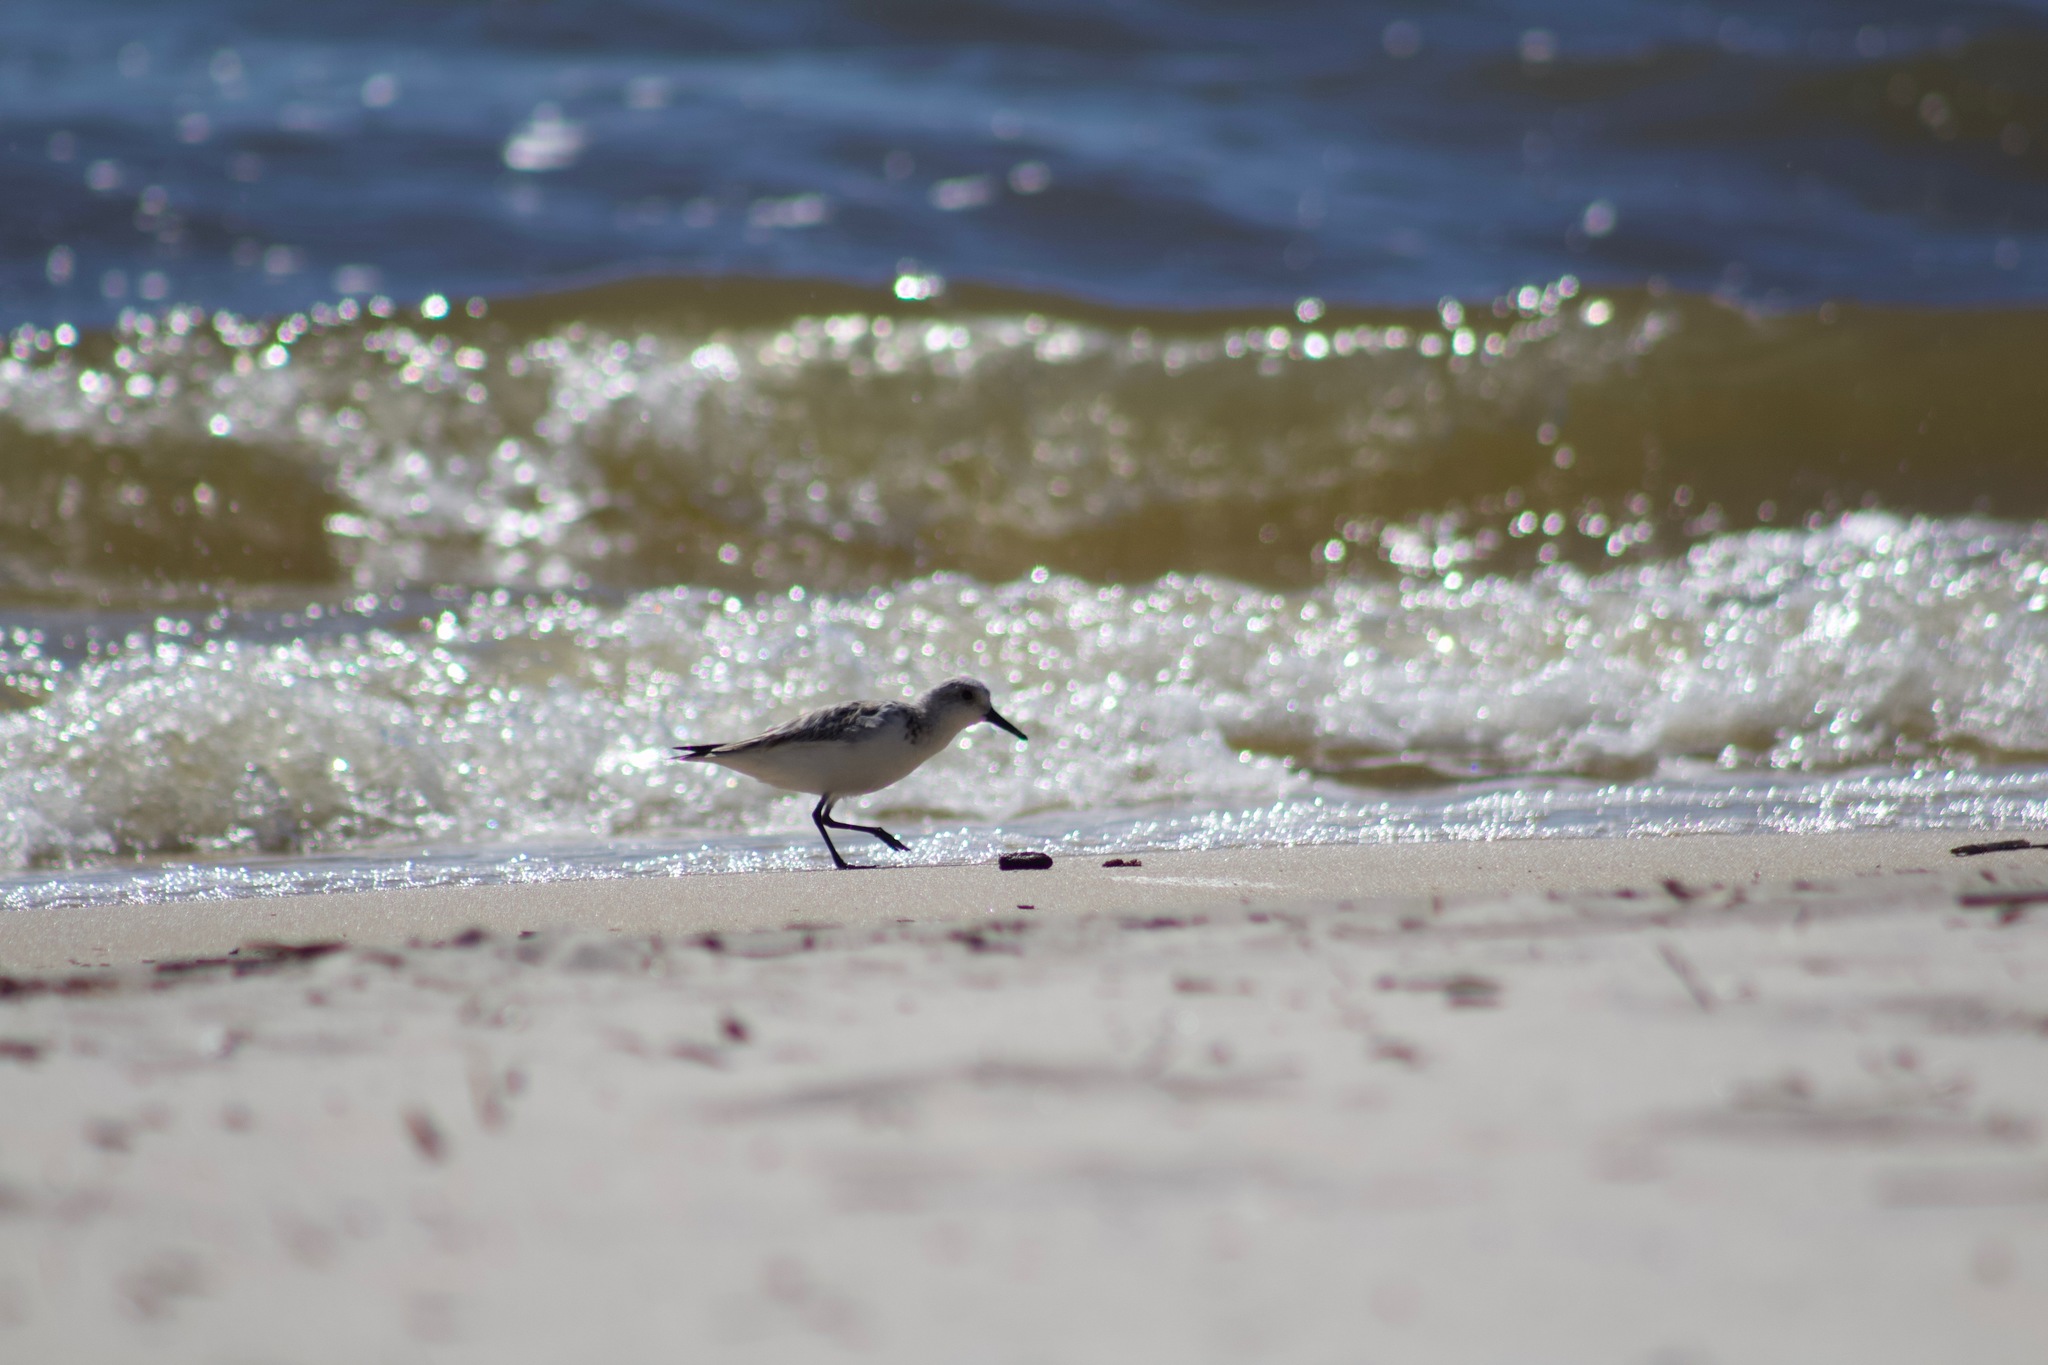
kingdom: Animalia
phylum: Chordata
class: Aves
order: Charadriiformes
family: Scolopacidae
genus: Calidris
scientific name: Calidris alba
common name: Sanderling
